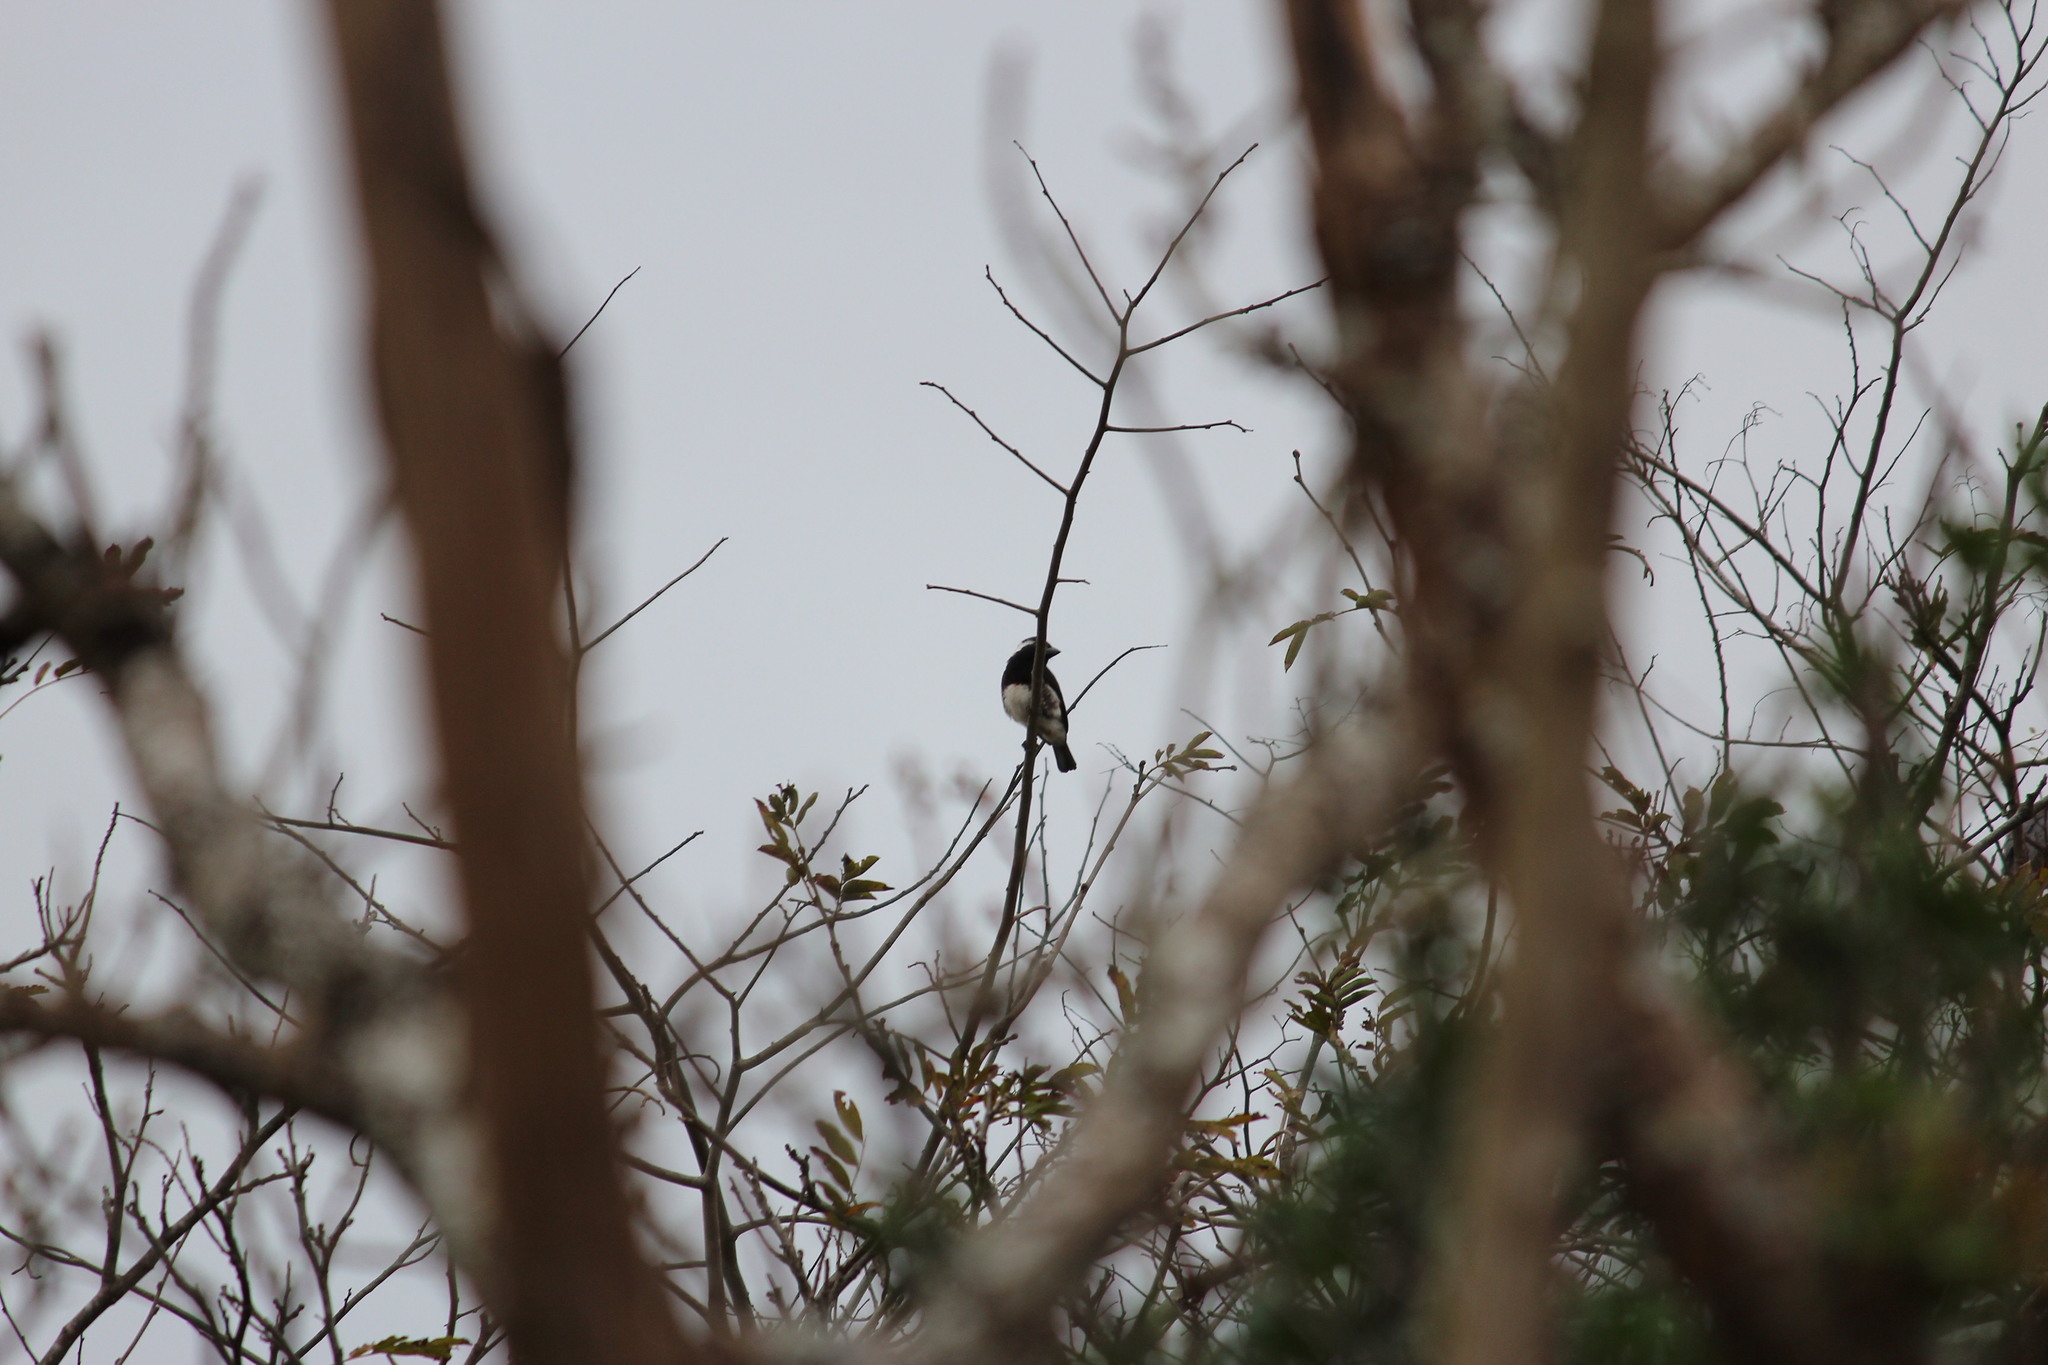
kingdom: Animalia
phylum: Chordata
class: Aves
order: Piciformes
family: Lybiidae
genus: Stactolaema
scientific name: Stactolaema leucotis
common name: White-eared barbet
